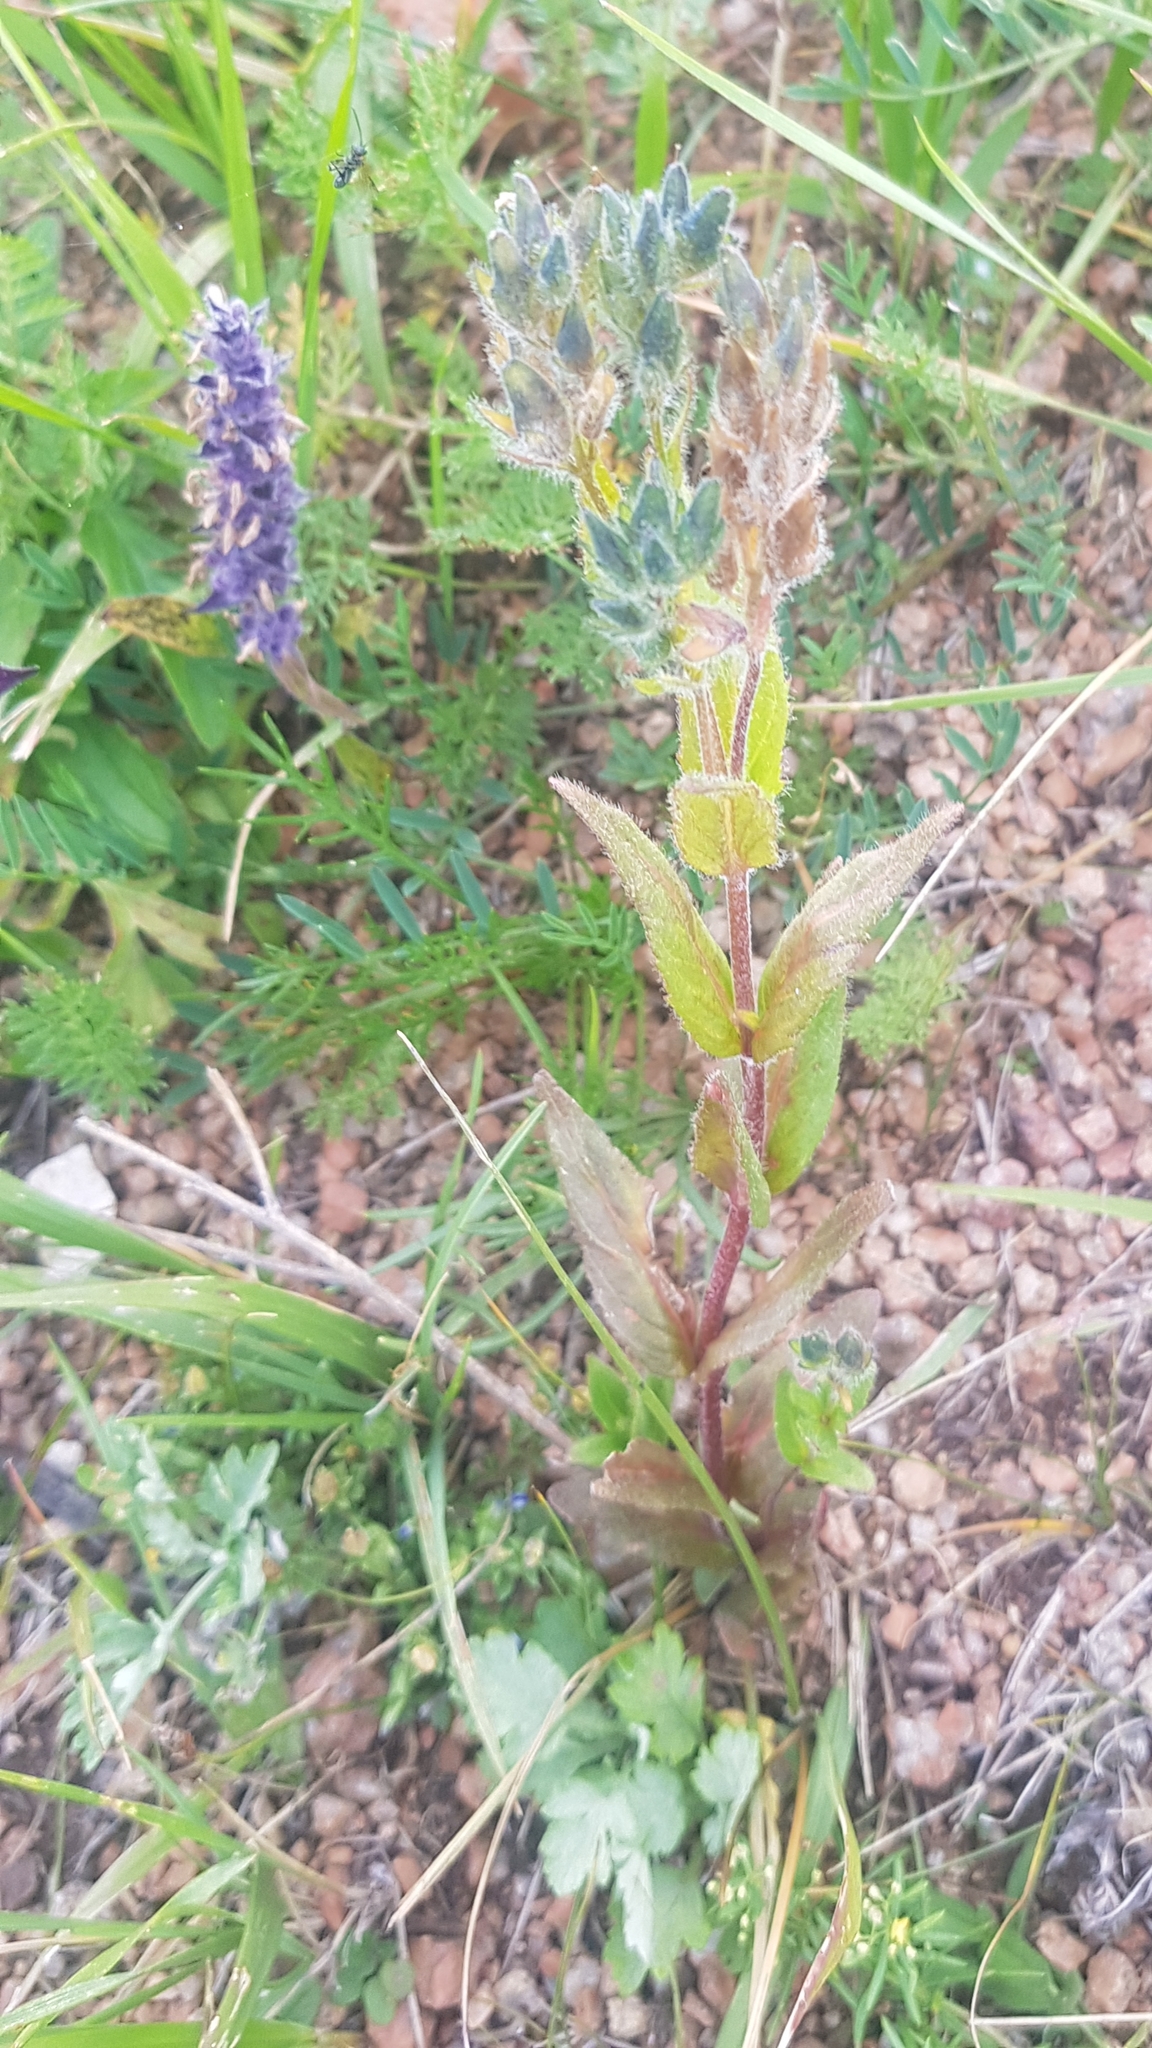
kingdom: Plantae
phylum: Tracheophyta
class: Magnoliopsida
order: Lamiales
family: Plantaginaceae
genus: Veronica
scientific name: Veronica ciliata
